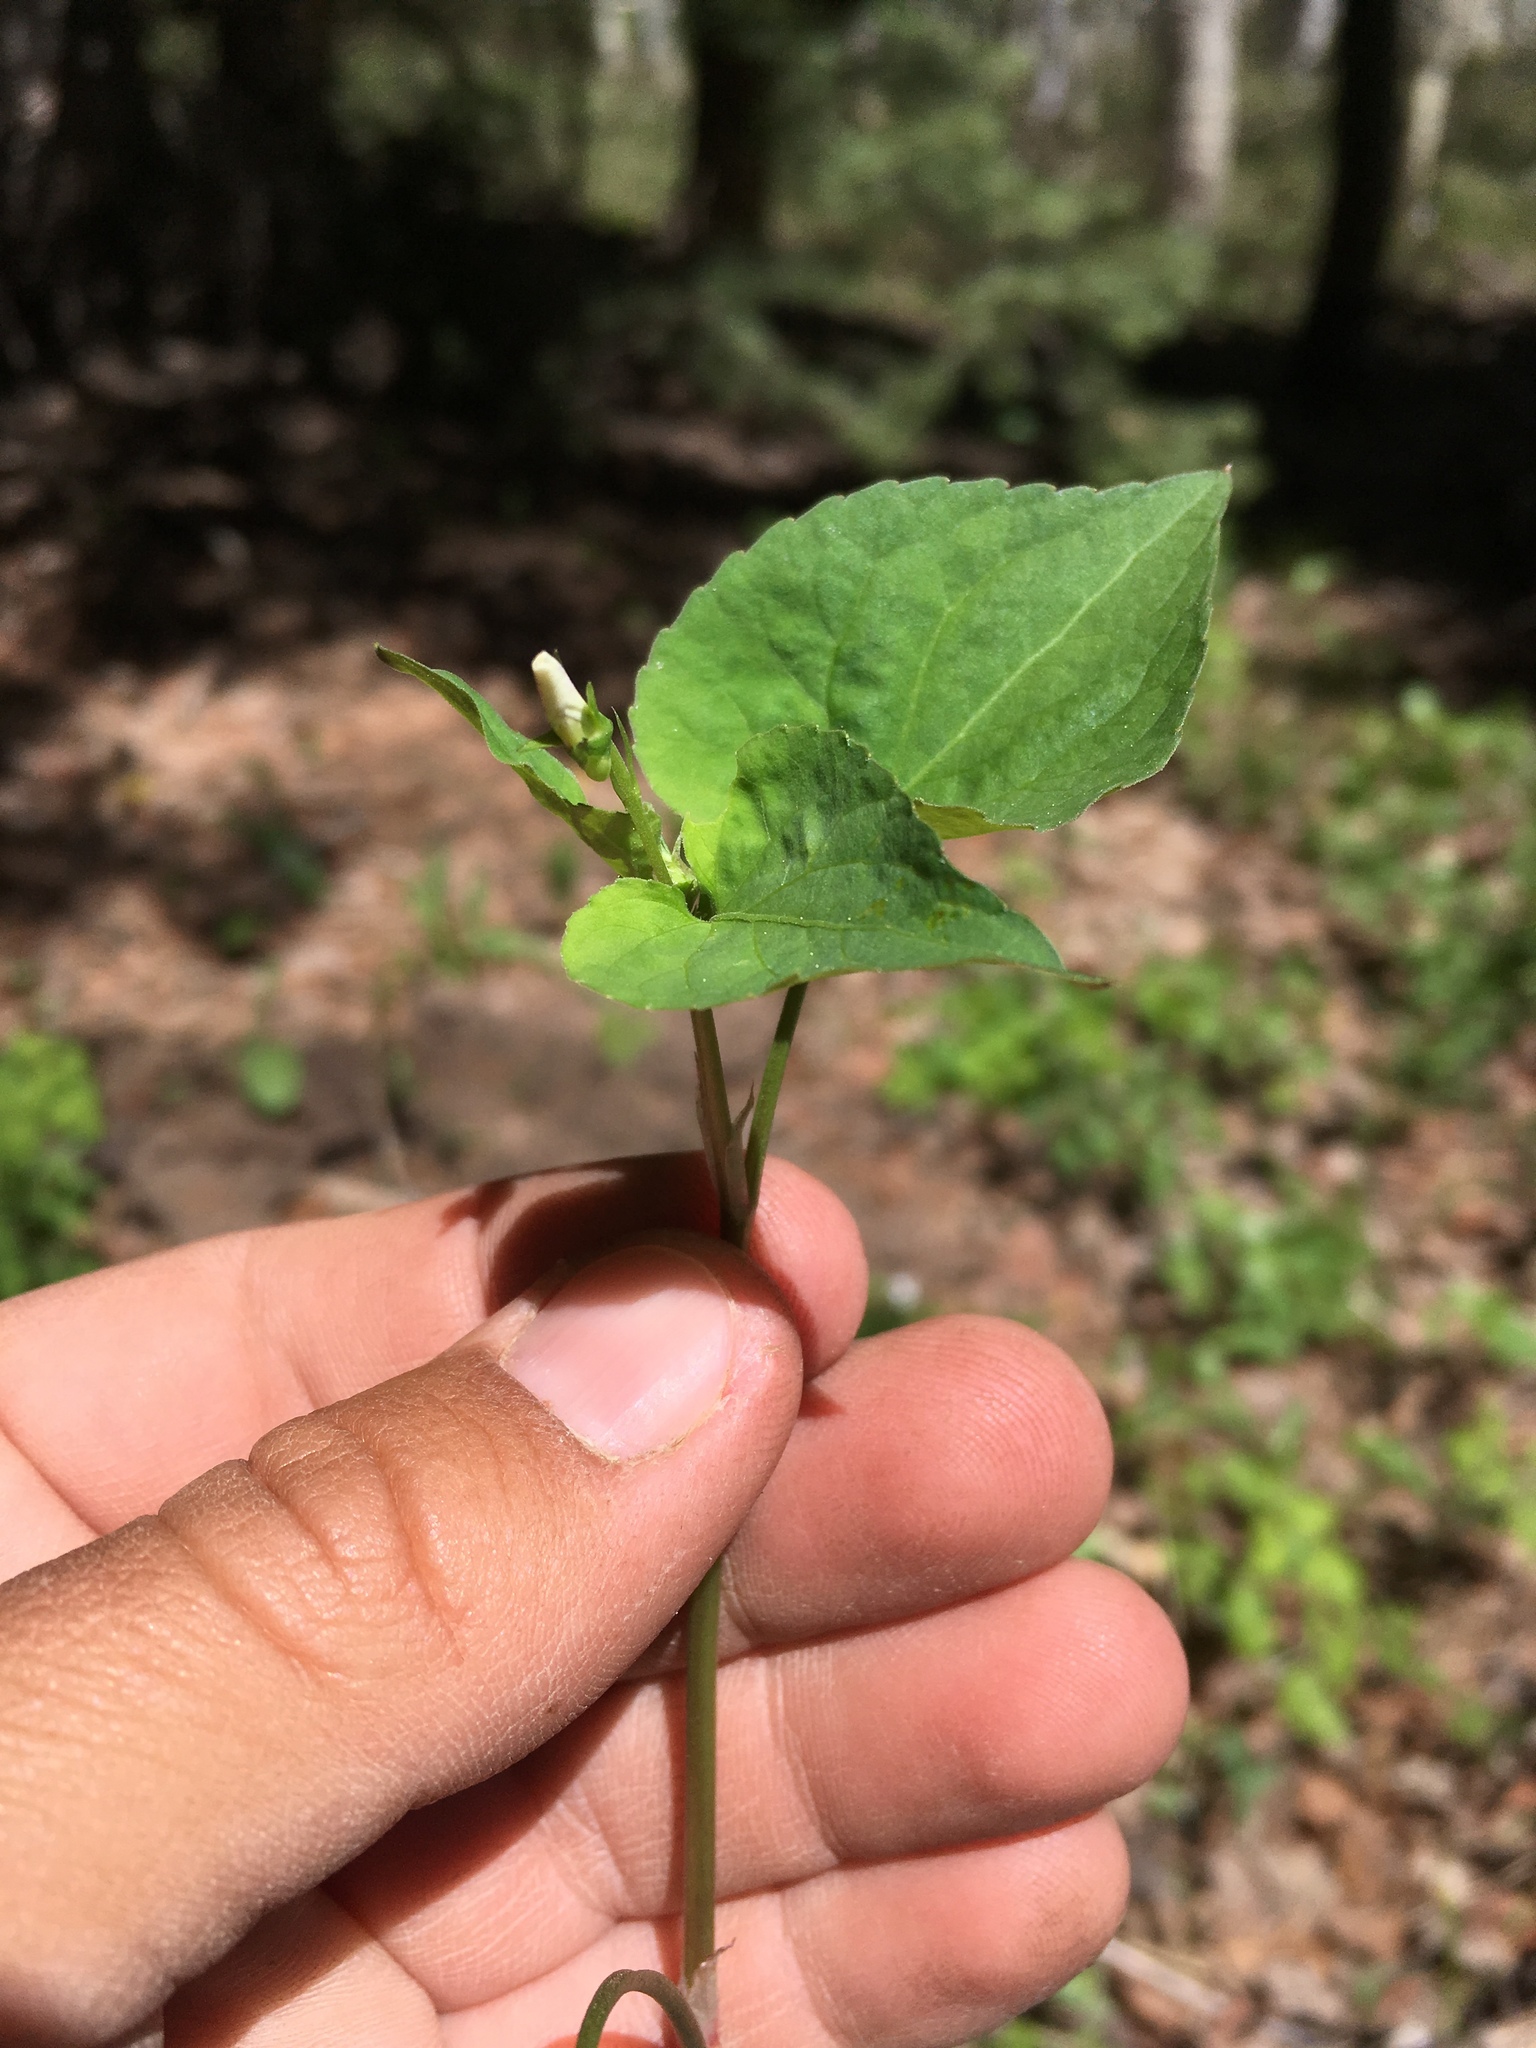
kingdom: Plantae
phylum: Tracheophyta
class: Magnoliopsida
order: Malpighiales
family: Violaceae
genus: Viola
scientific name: Viola canadensis
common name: Canada violet
